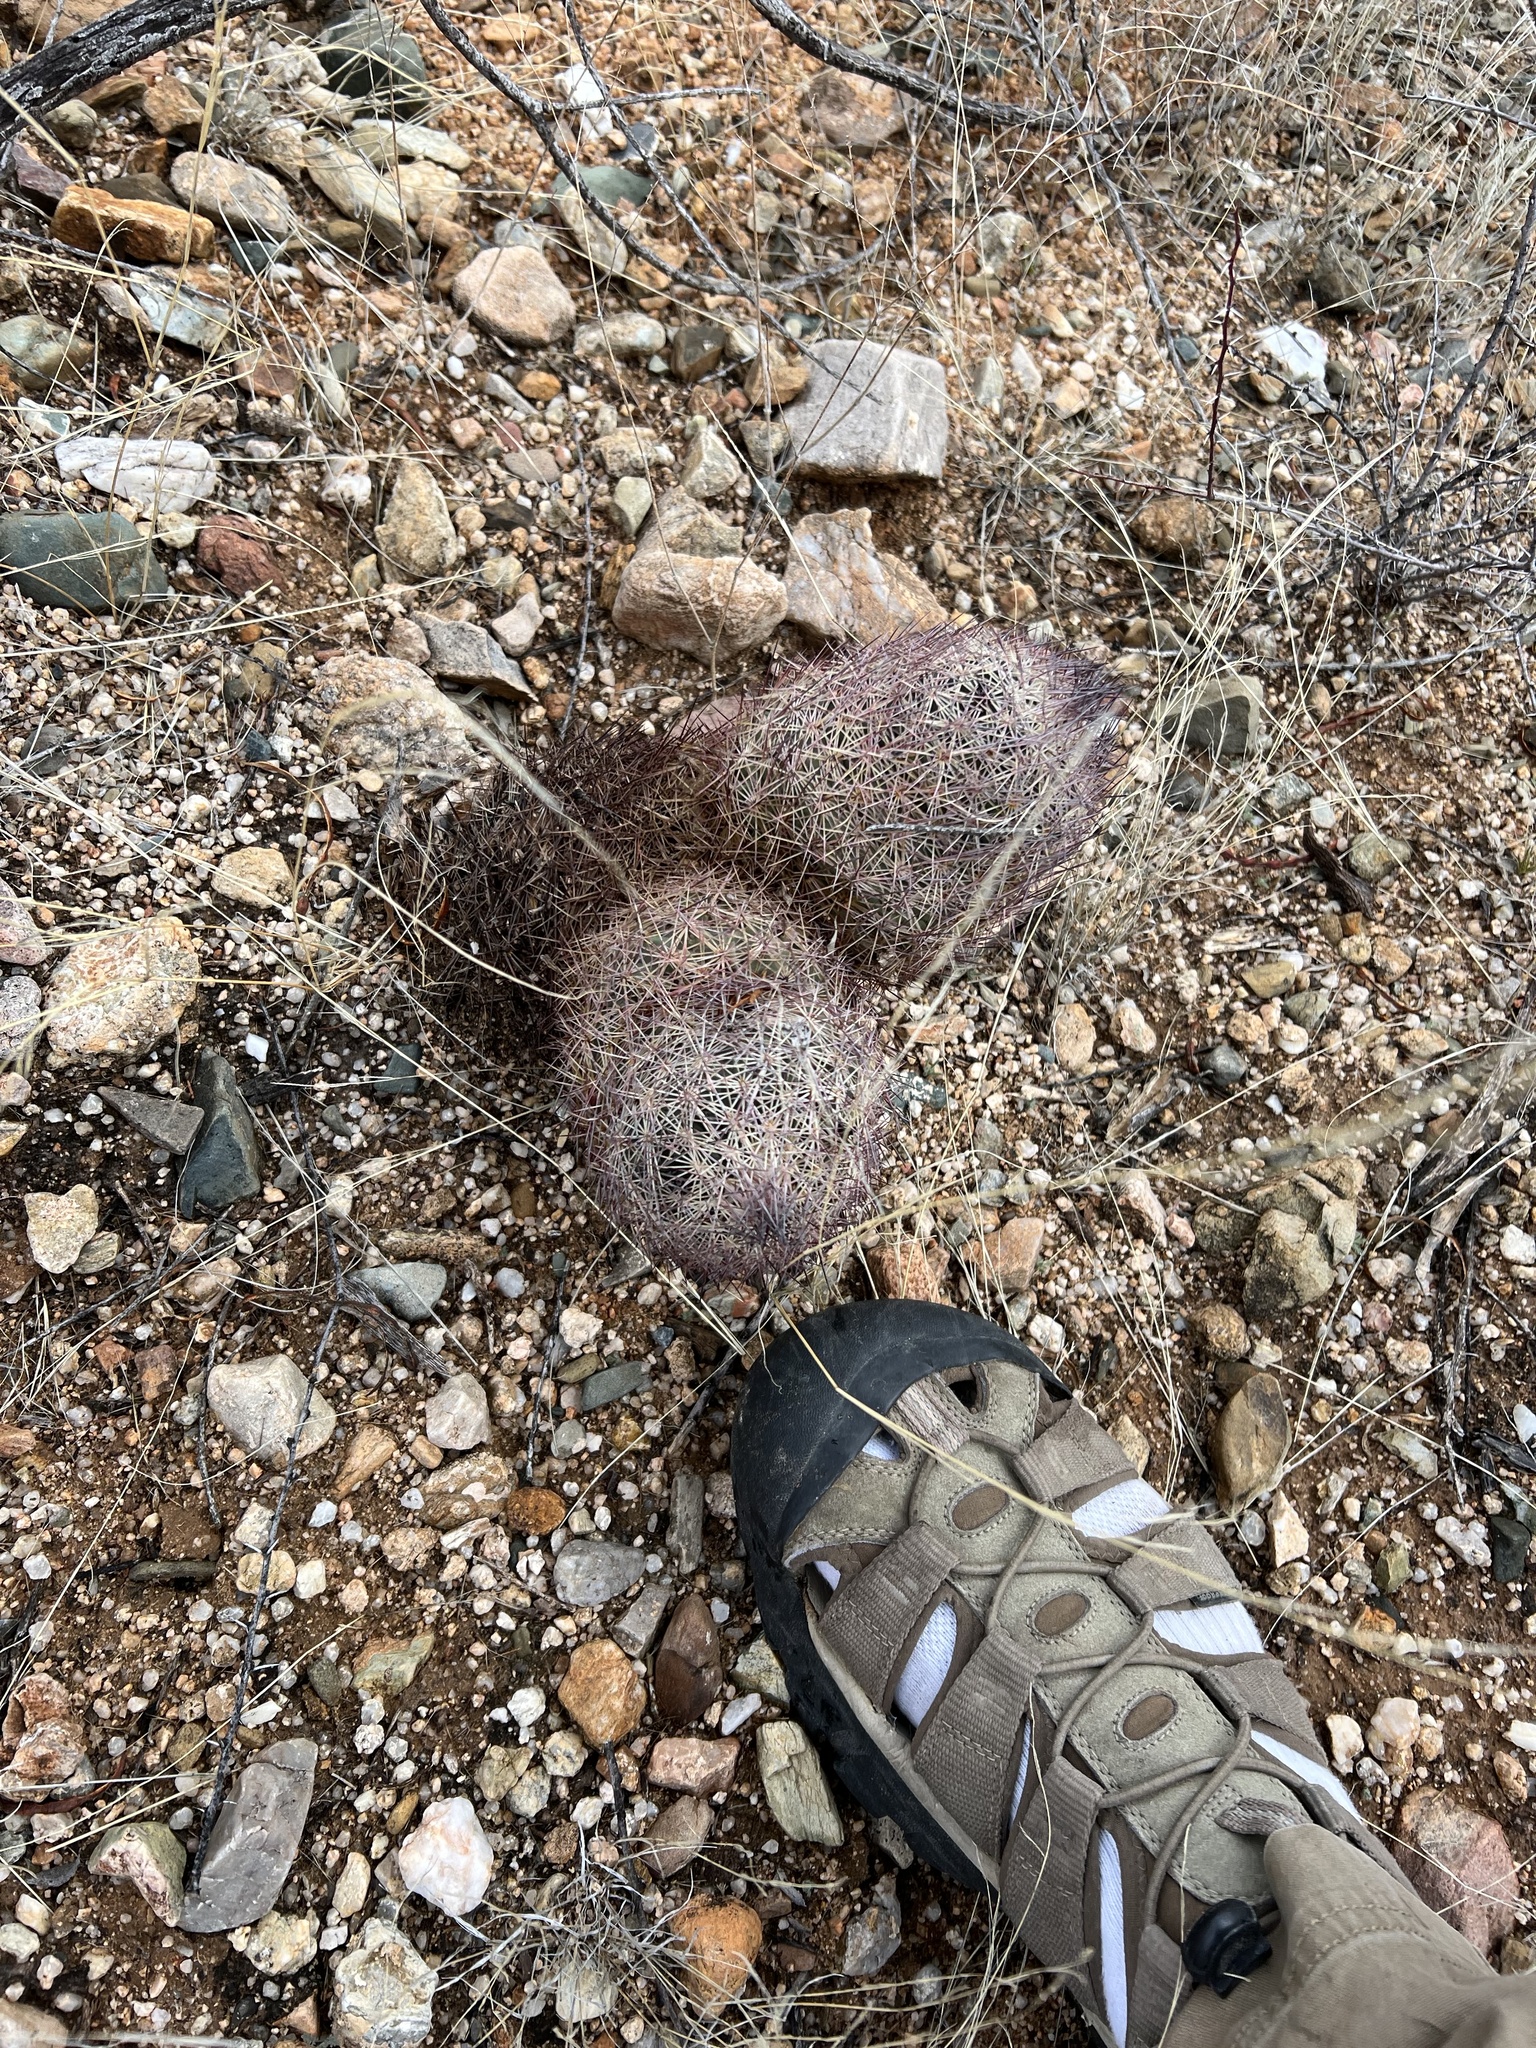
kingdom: Plantae
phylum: Tracheophyta
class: Magnoliopsida
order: Caryophyllales
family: Cactaceae
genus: Sclerocactus
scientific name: Sclerocactus johnsonii
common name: Eight-spine fishhook cactus
